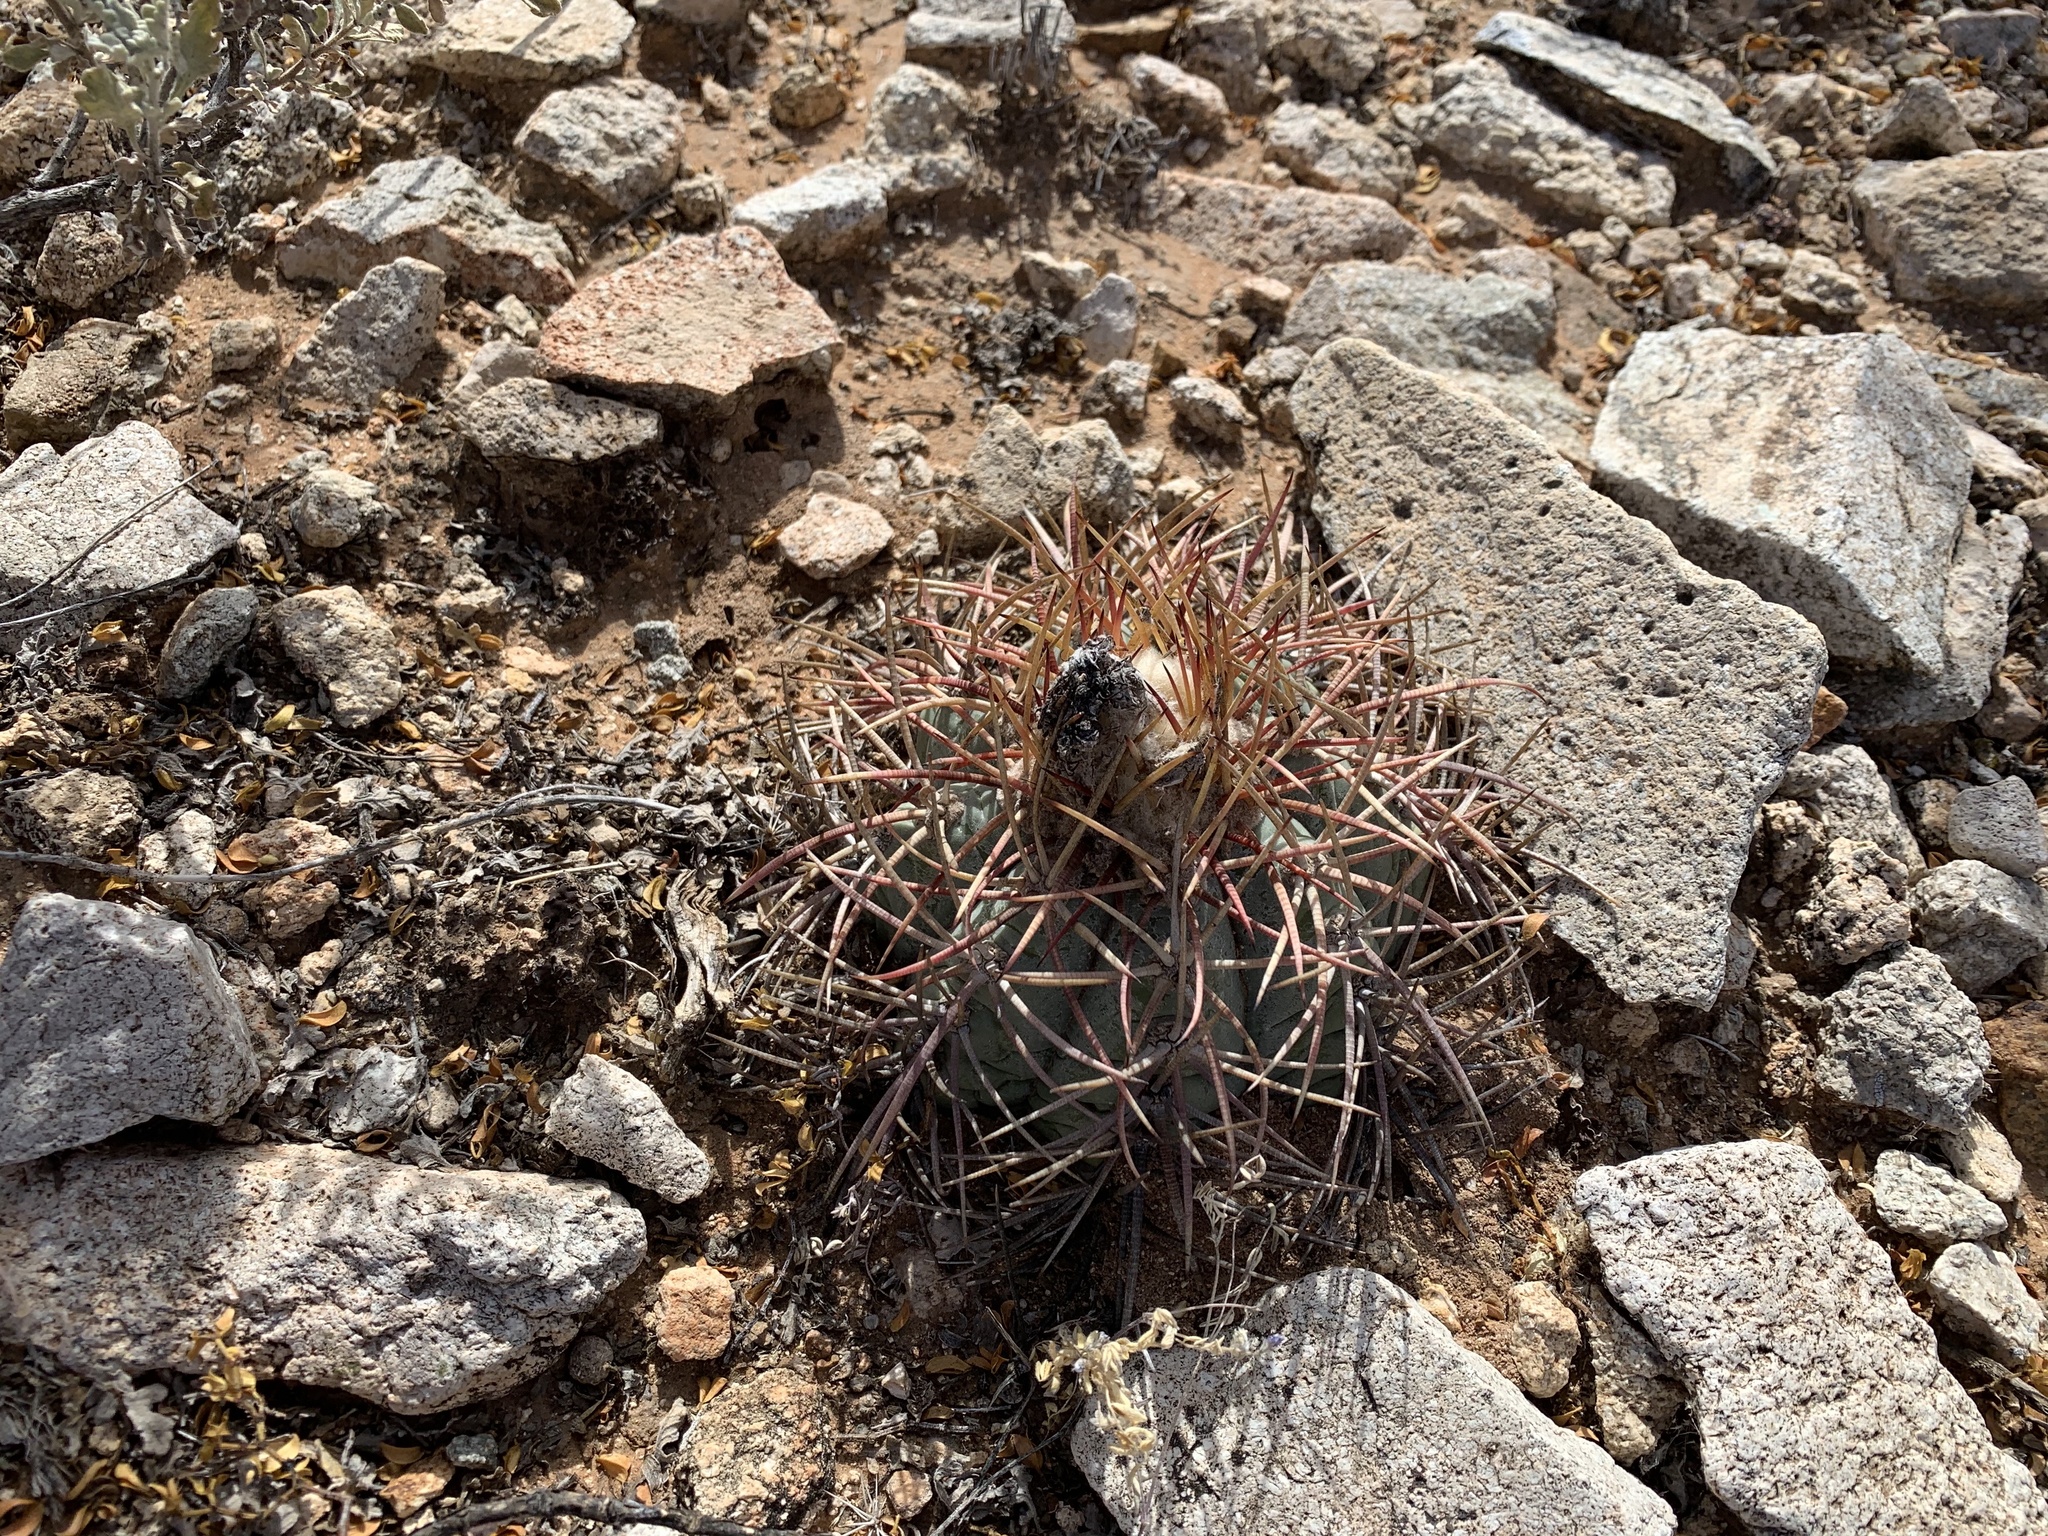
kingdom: Plantae
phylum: Tracheophyta
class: Magnoliopsida
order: Caryophyllales
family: Cactaceae
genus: Echinocactus
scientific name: Echinocactus horizonthalonius
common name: Devilshead
